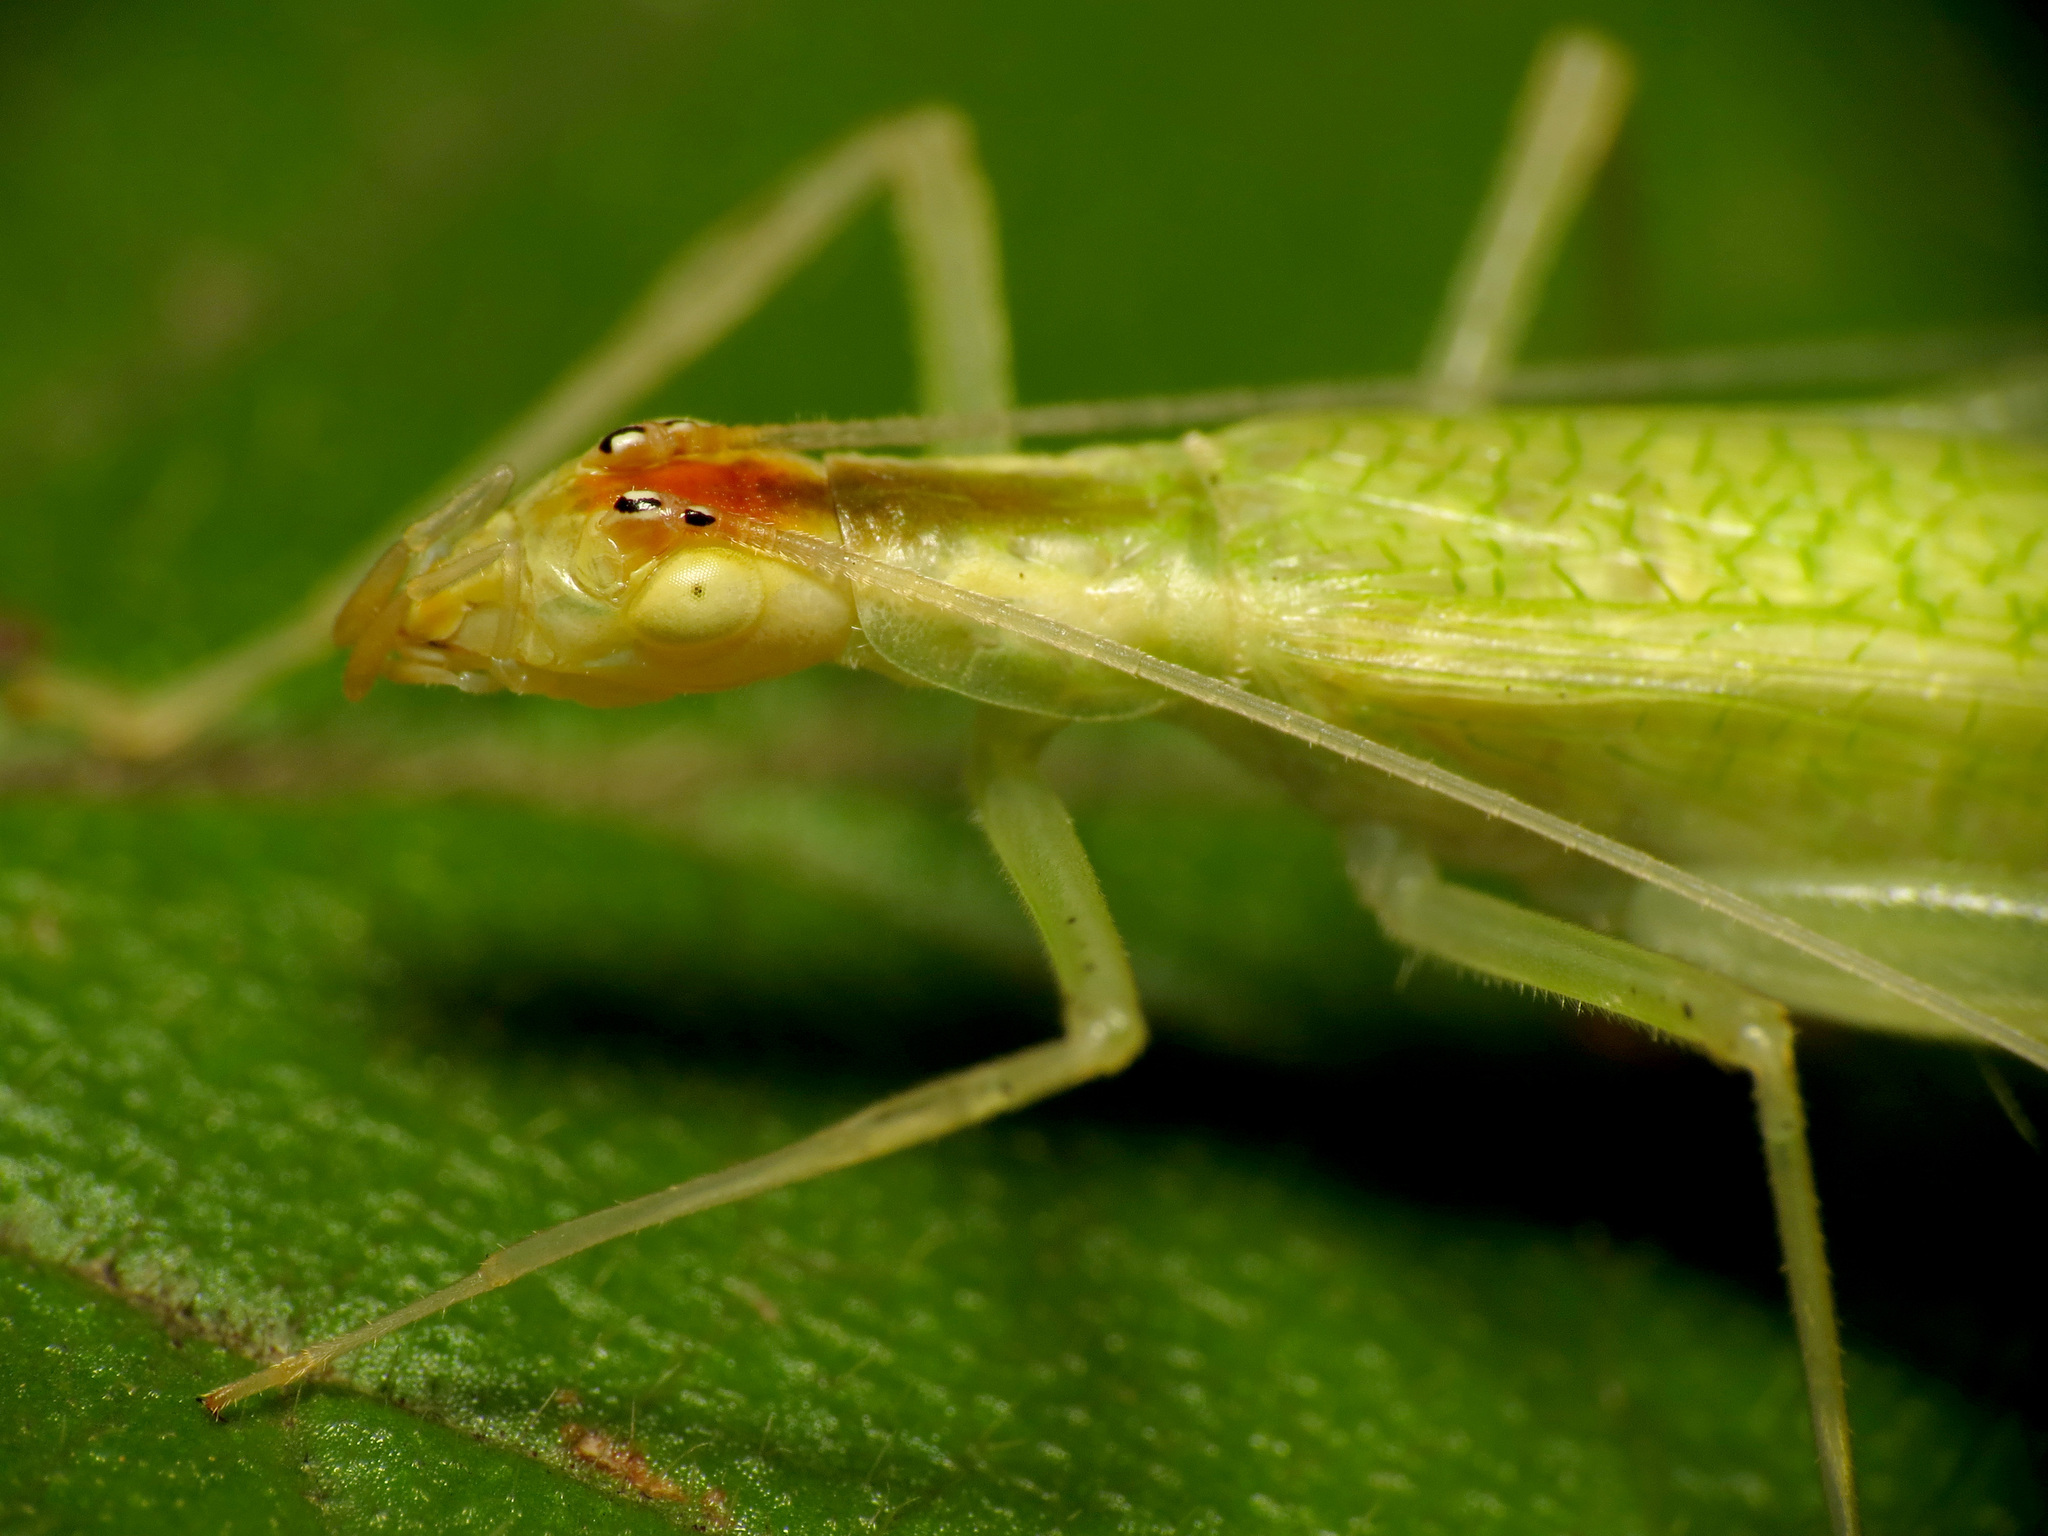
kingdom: Animalia
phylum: Arthropoda
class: Insecta
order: Orthoptera
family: Gryllidae
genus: Oecanthus
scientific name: Oecanthus niveus
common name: Narrow-winged tree cricket
